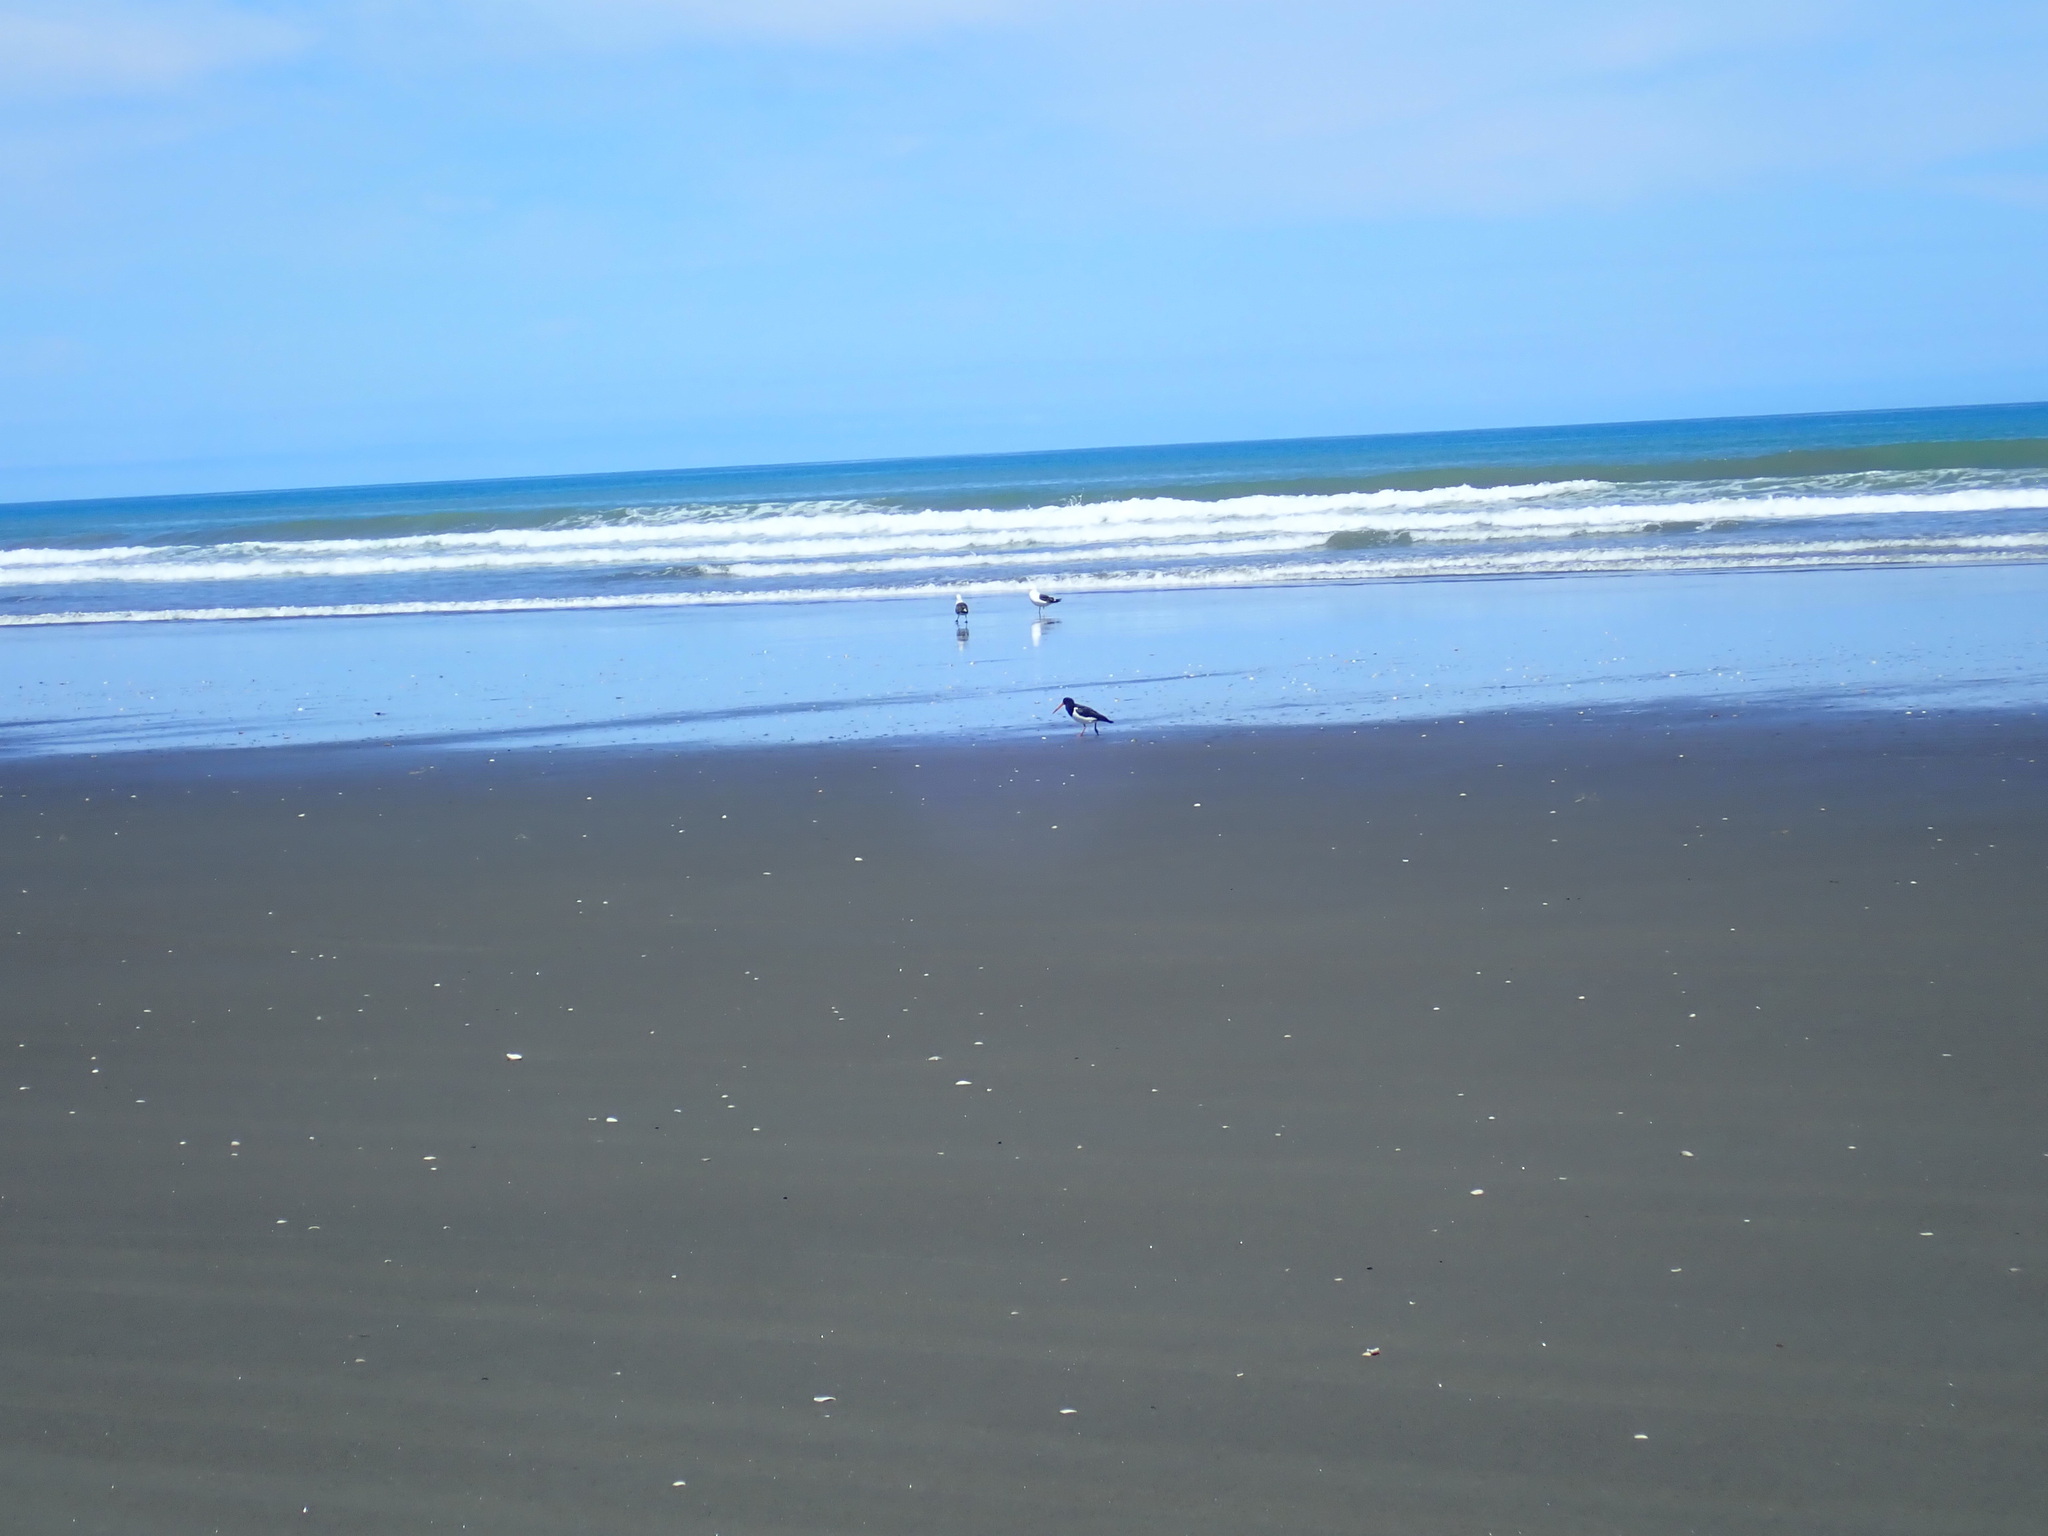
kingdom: Animalia
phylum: Chordata
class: Aves
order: Charadriiformes
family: Haematopodidae
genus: Haematopus
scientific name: Haematopus finschi
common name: South island oystercatcher
